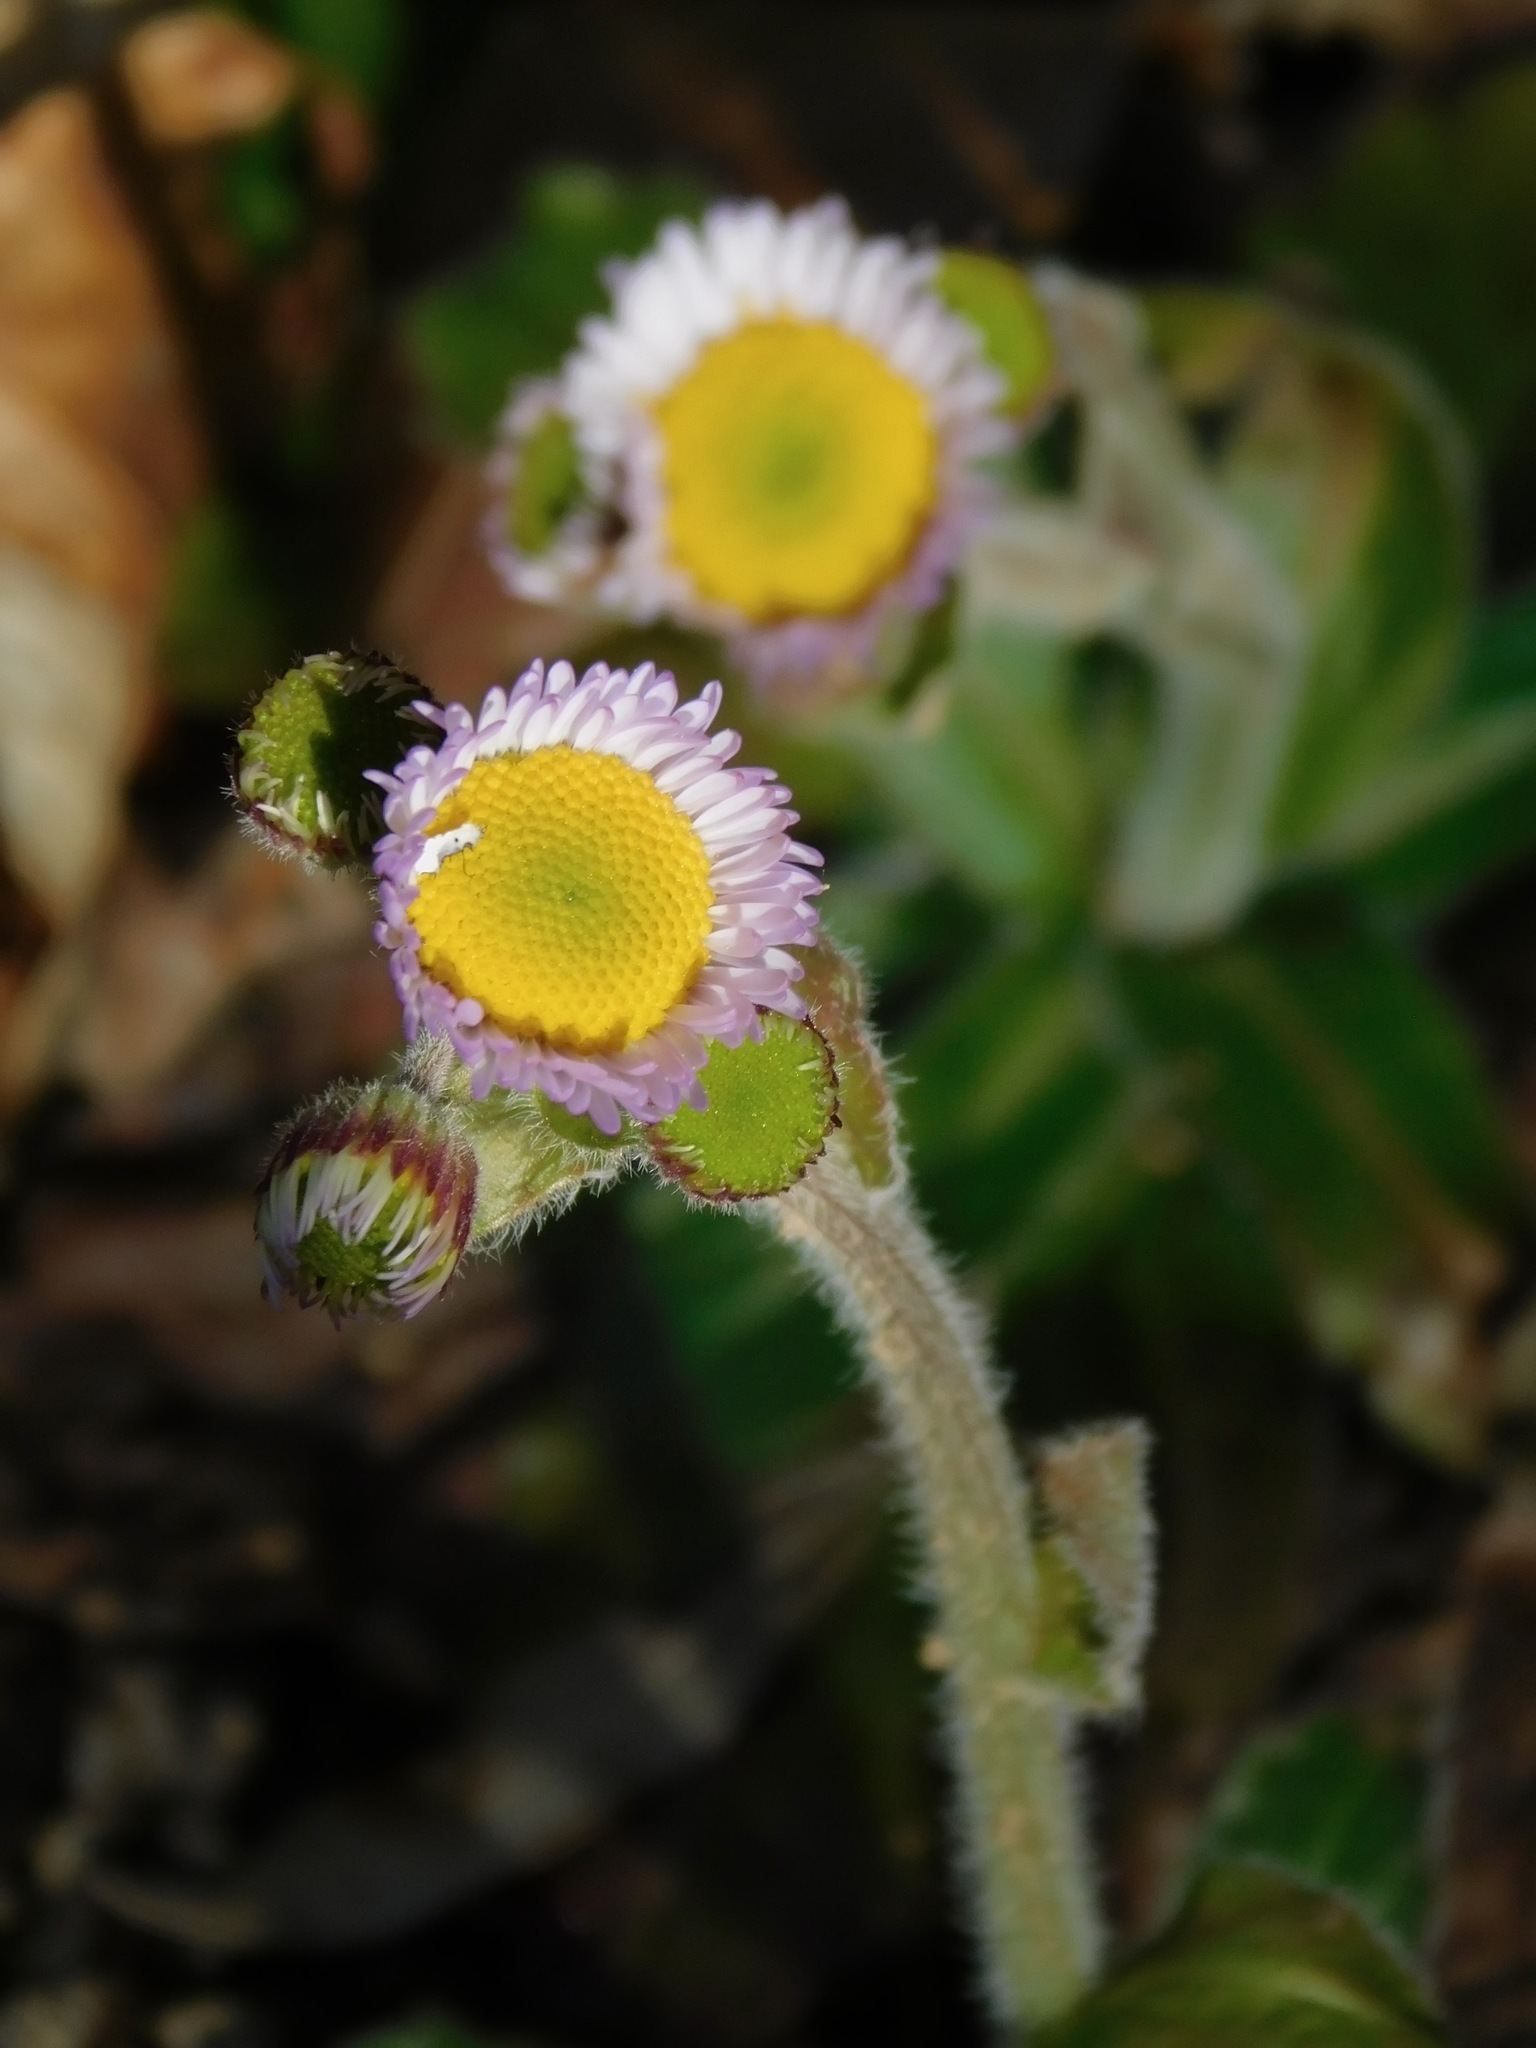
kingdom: Plantae
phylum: Tracheophyta
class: Magnoliopsida
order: Asterales
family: Asteraceae
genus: Erigeron
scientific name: Erigeron pulchellus
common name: Hairy fleabane
